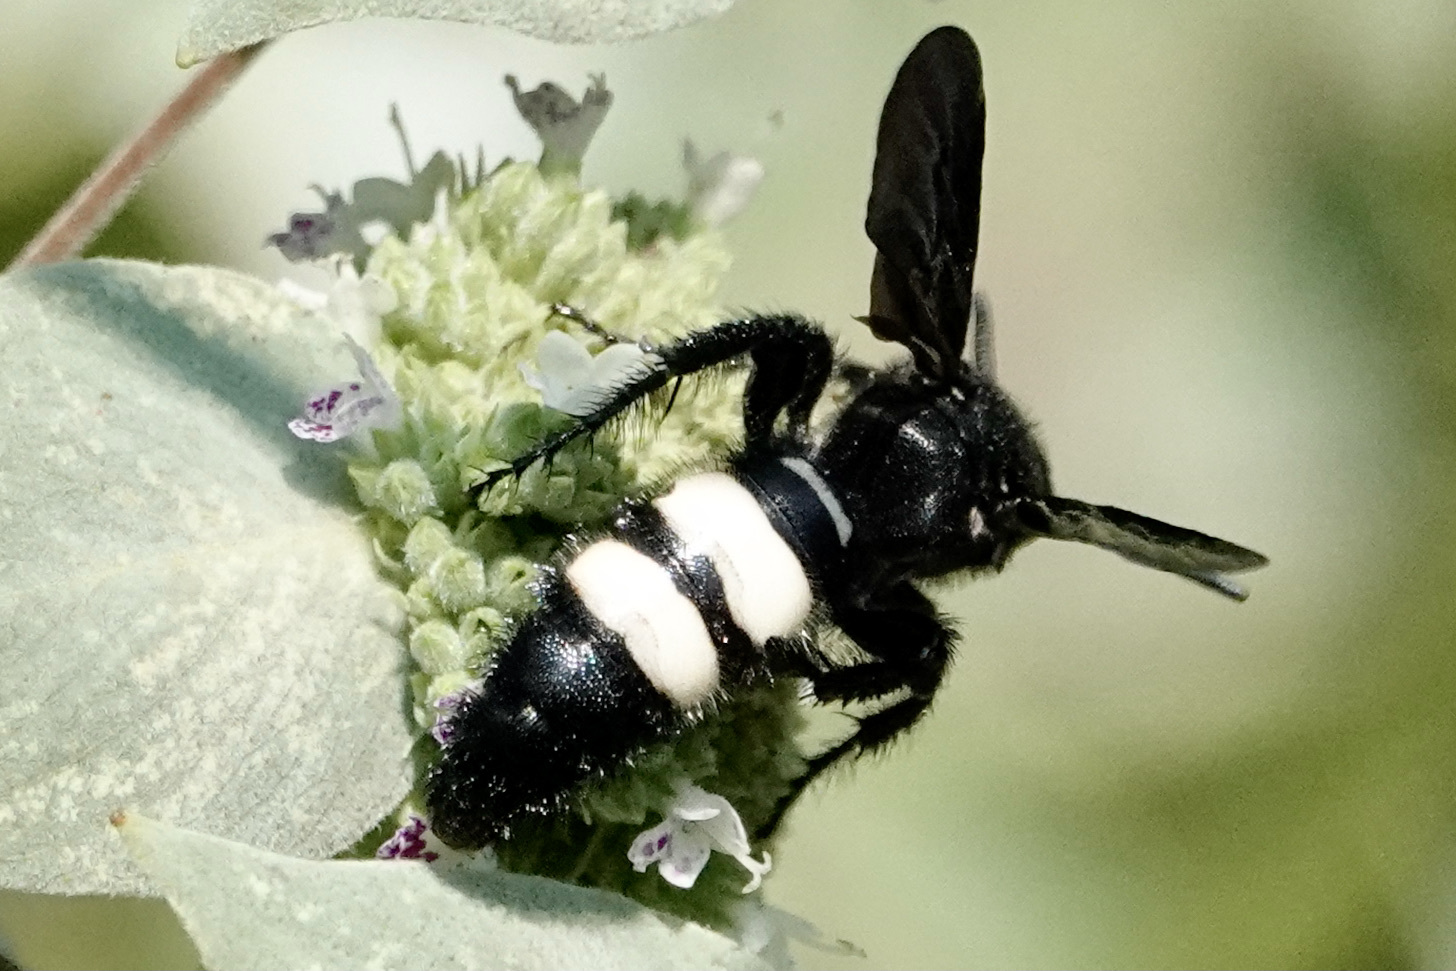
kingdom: Animalia
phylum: Arthropoda
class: Insecta
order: Hymenoptera
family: Scoliidae
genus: Scolia
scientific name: Scolia bicincta
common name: Double-banded scoliid wasp
